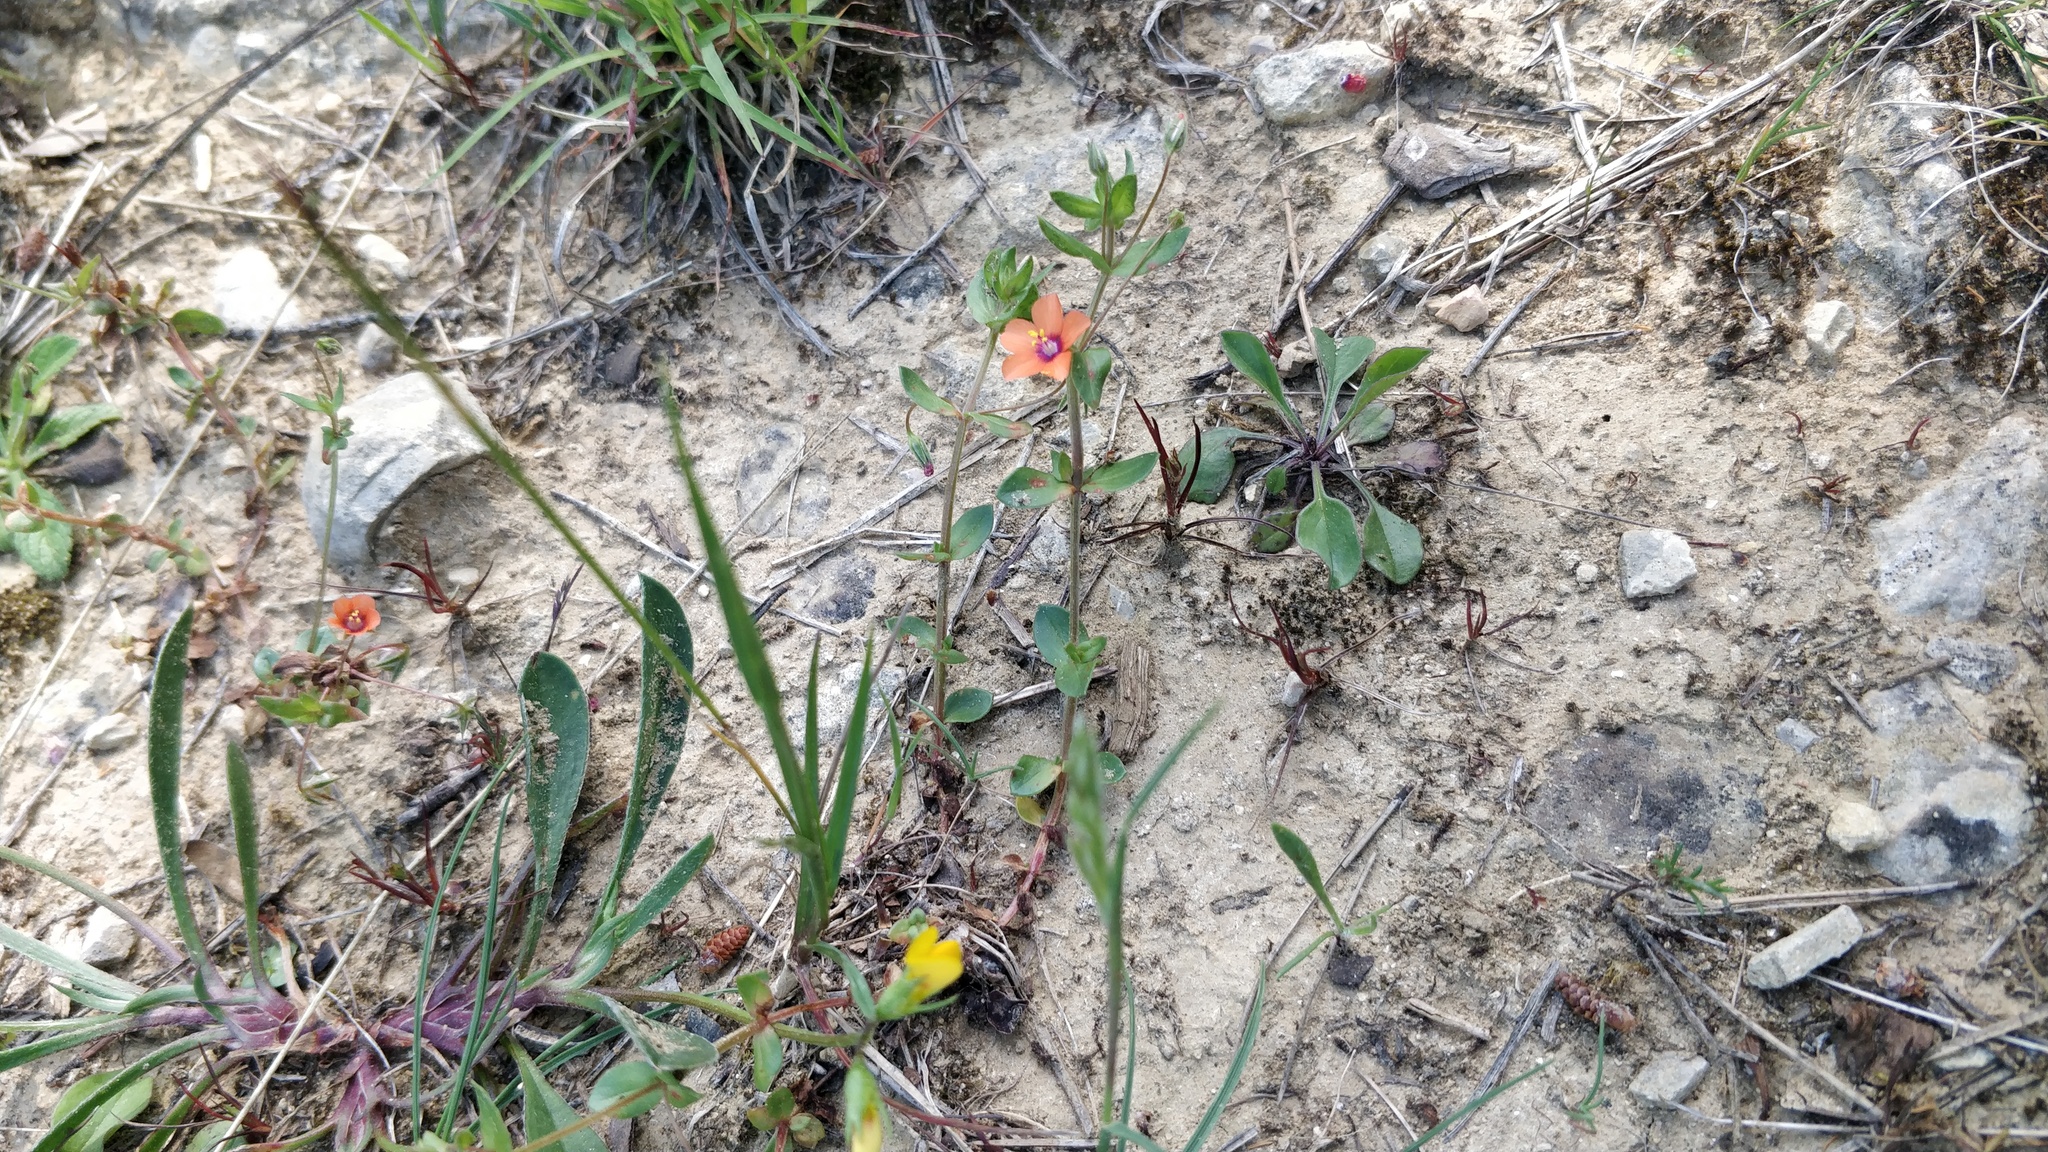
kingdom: Plantae
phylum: Tracheophyta
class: Magnoliopsida
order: Ericales
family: Primulaceae
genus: Lysimachia
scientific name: Lysimachia arvensis
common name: Scarlet pimpernel
